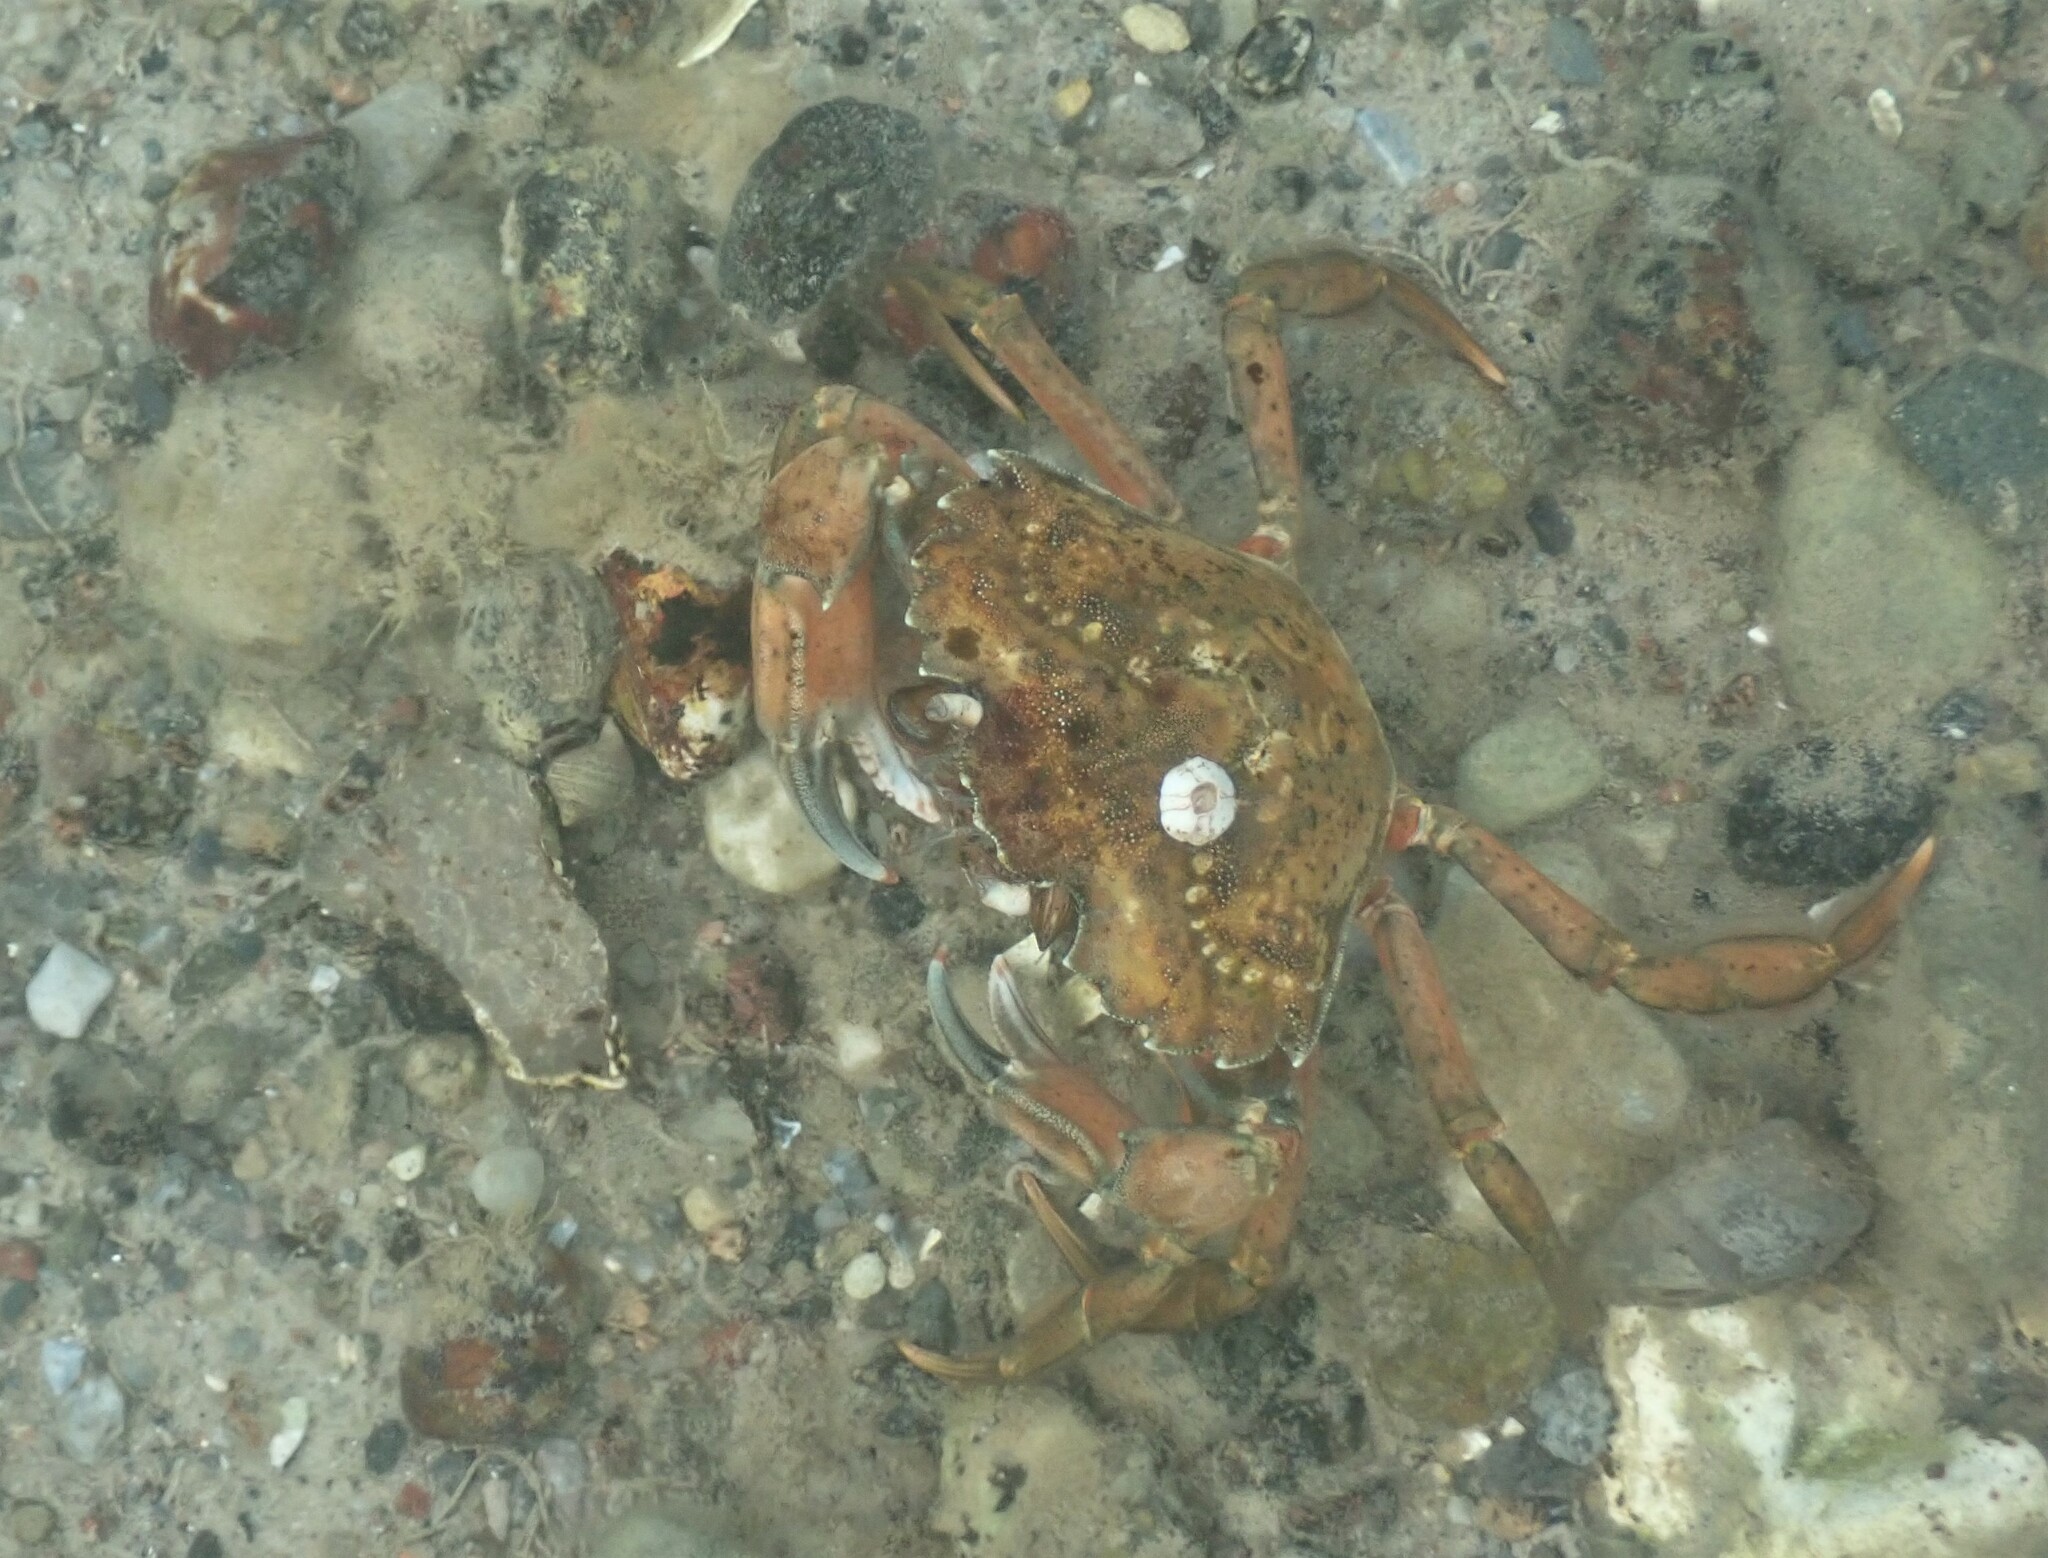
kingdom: Animalia
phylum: Arthropoda
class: Malacostraca
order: Decapoda
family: Carcinidae
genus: Carcinus
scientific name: Carcinus maenas
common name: European green crab
